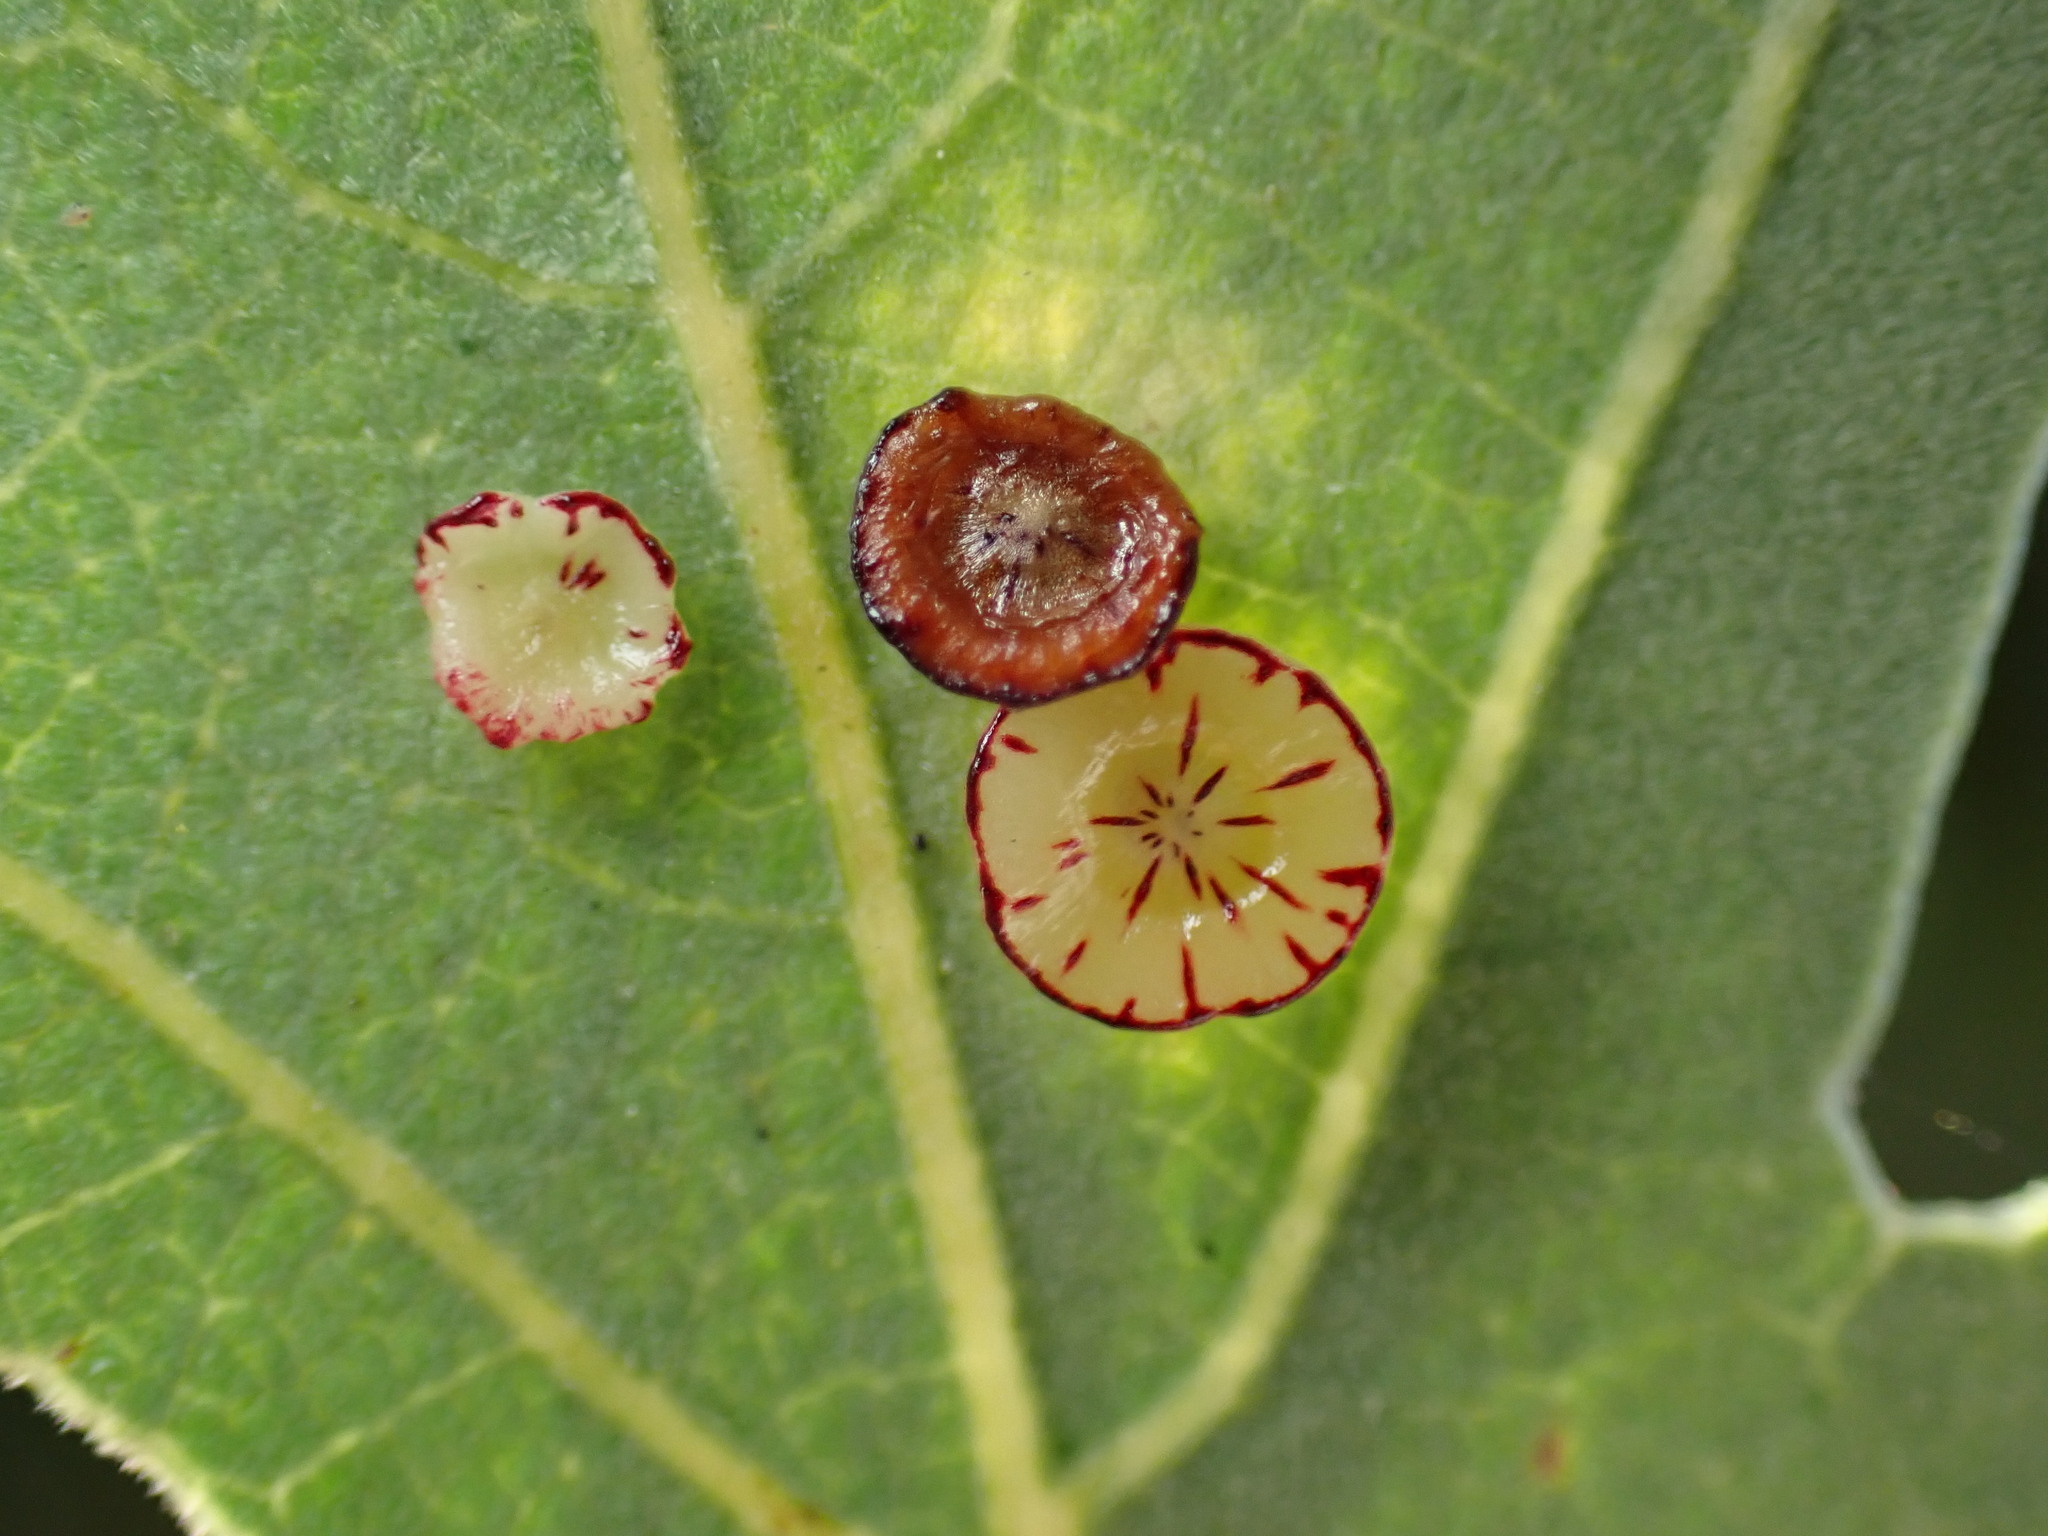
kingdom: Animalia
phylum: Arthropoda
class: Insecta
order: Hymenoptera
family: Cynipidae
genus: Andricus
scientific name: Andricus
